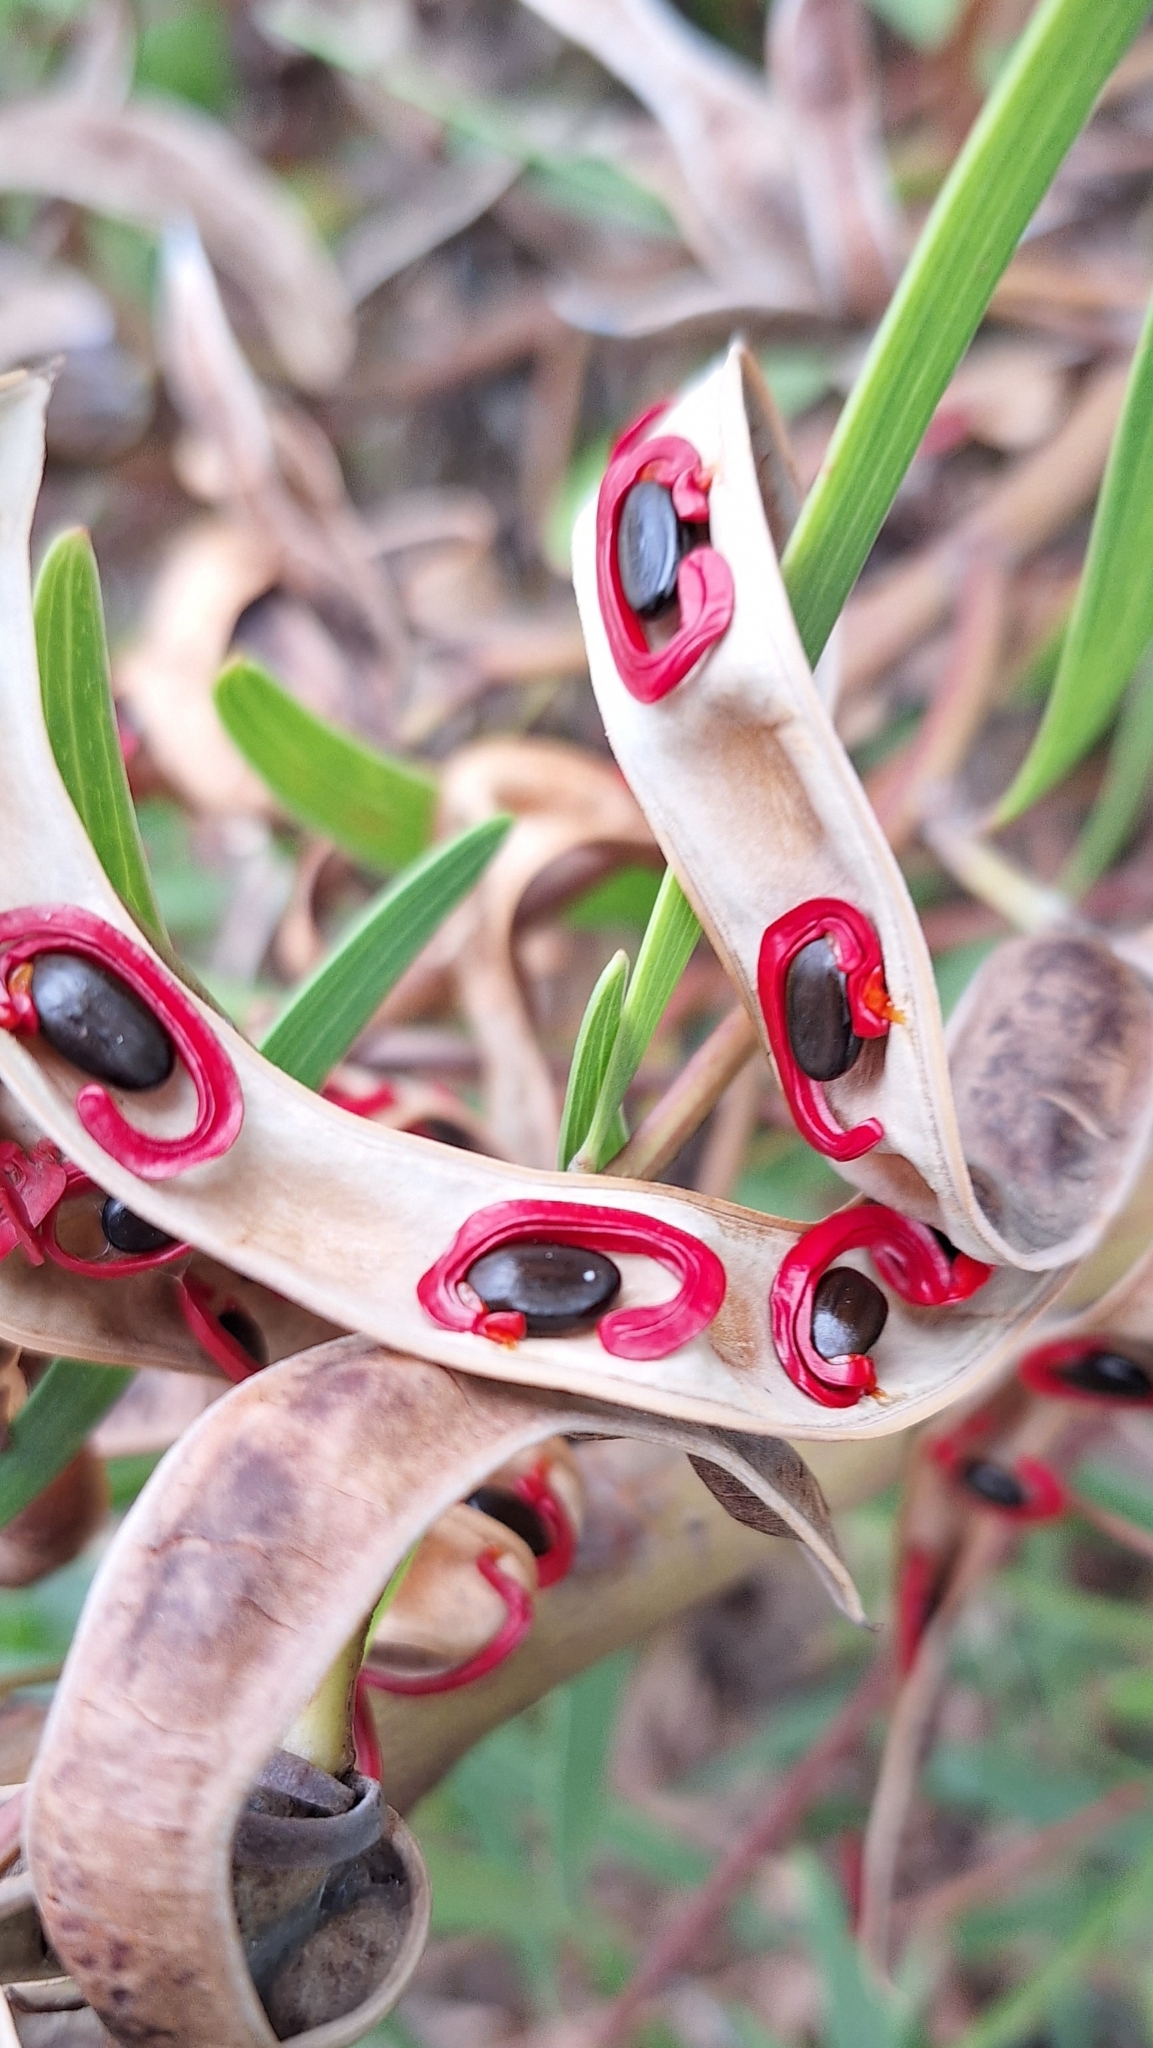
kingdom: Plantae
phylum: Tracheophyta
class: Magnoliopsida
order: Fabales
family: Fabaceae
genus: Acacia
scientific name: Acacia cyclops
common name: Coastal wattle
